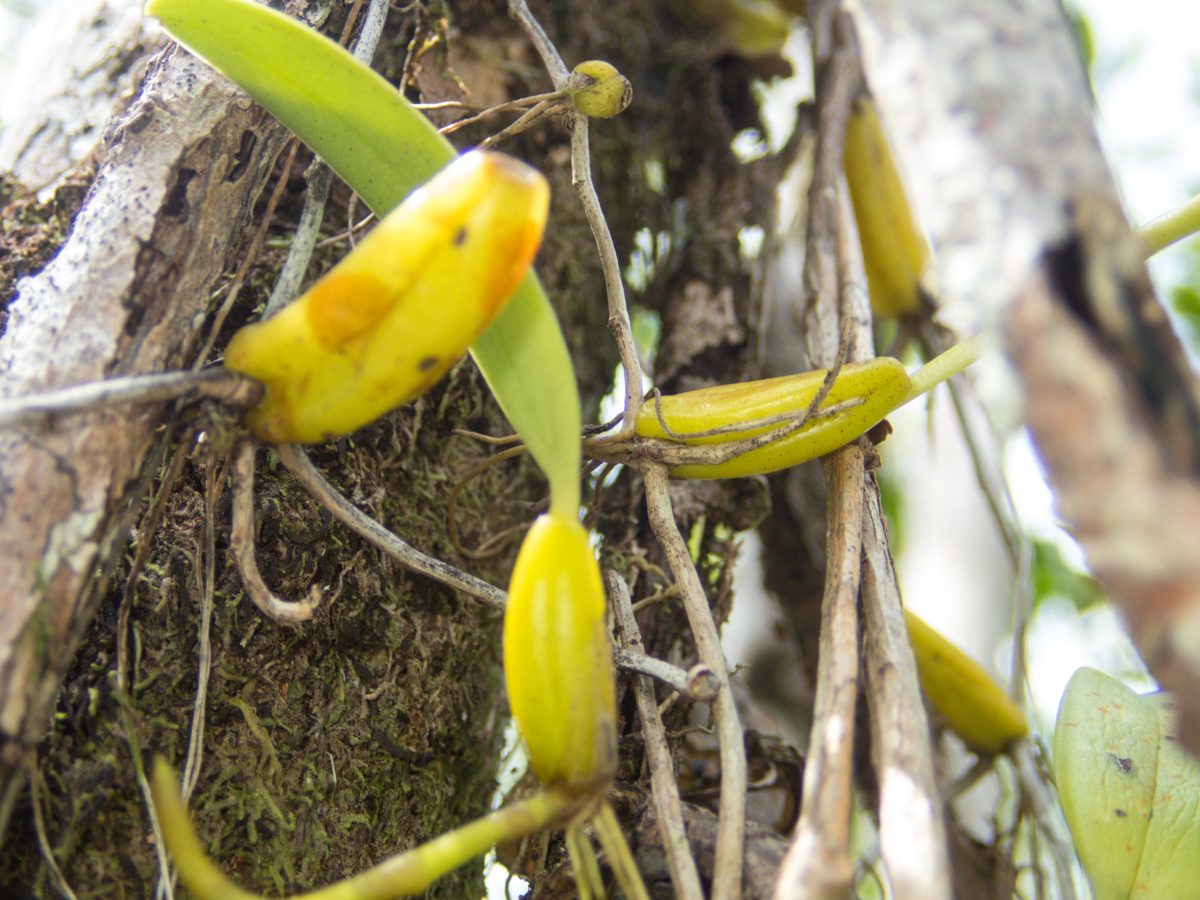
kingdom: Plantae
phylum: Tracheophyta
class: Liliopsida
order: Asparagales
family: Orchidaceae
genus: Bulbophyllum
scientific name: Bulbophyllum odoratissimum
